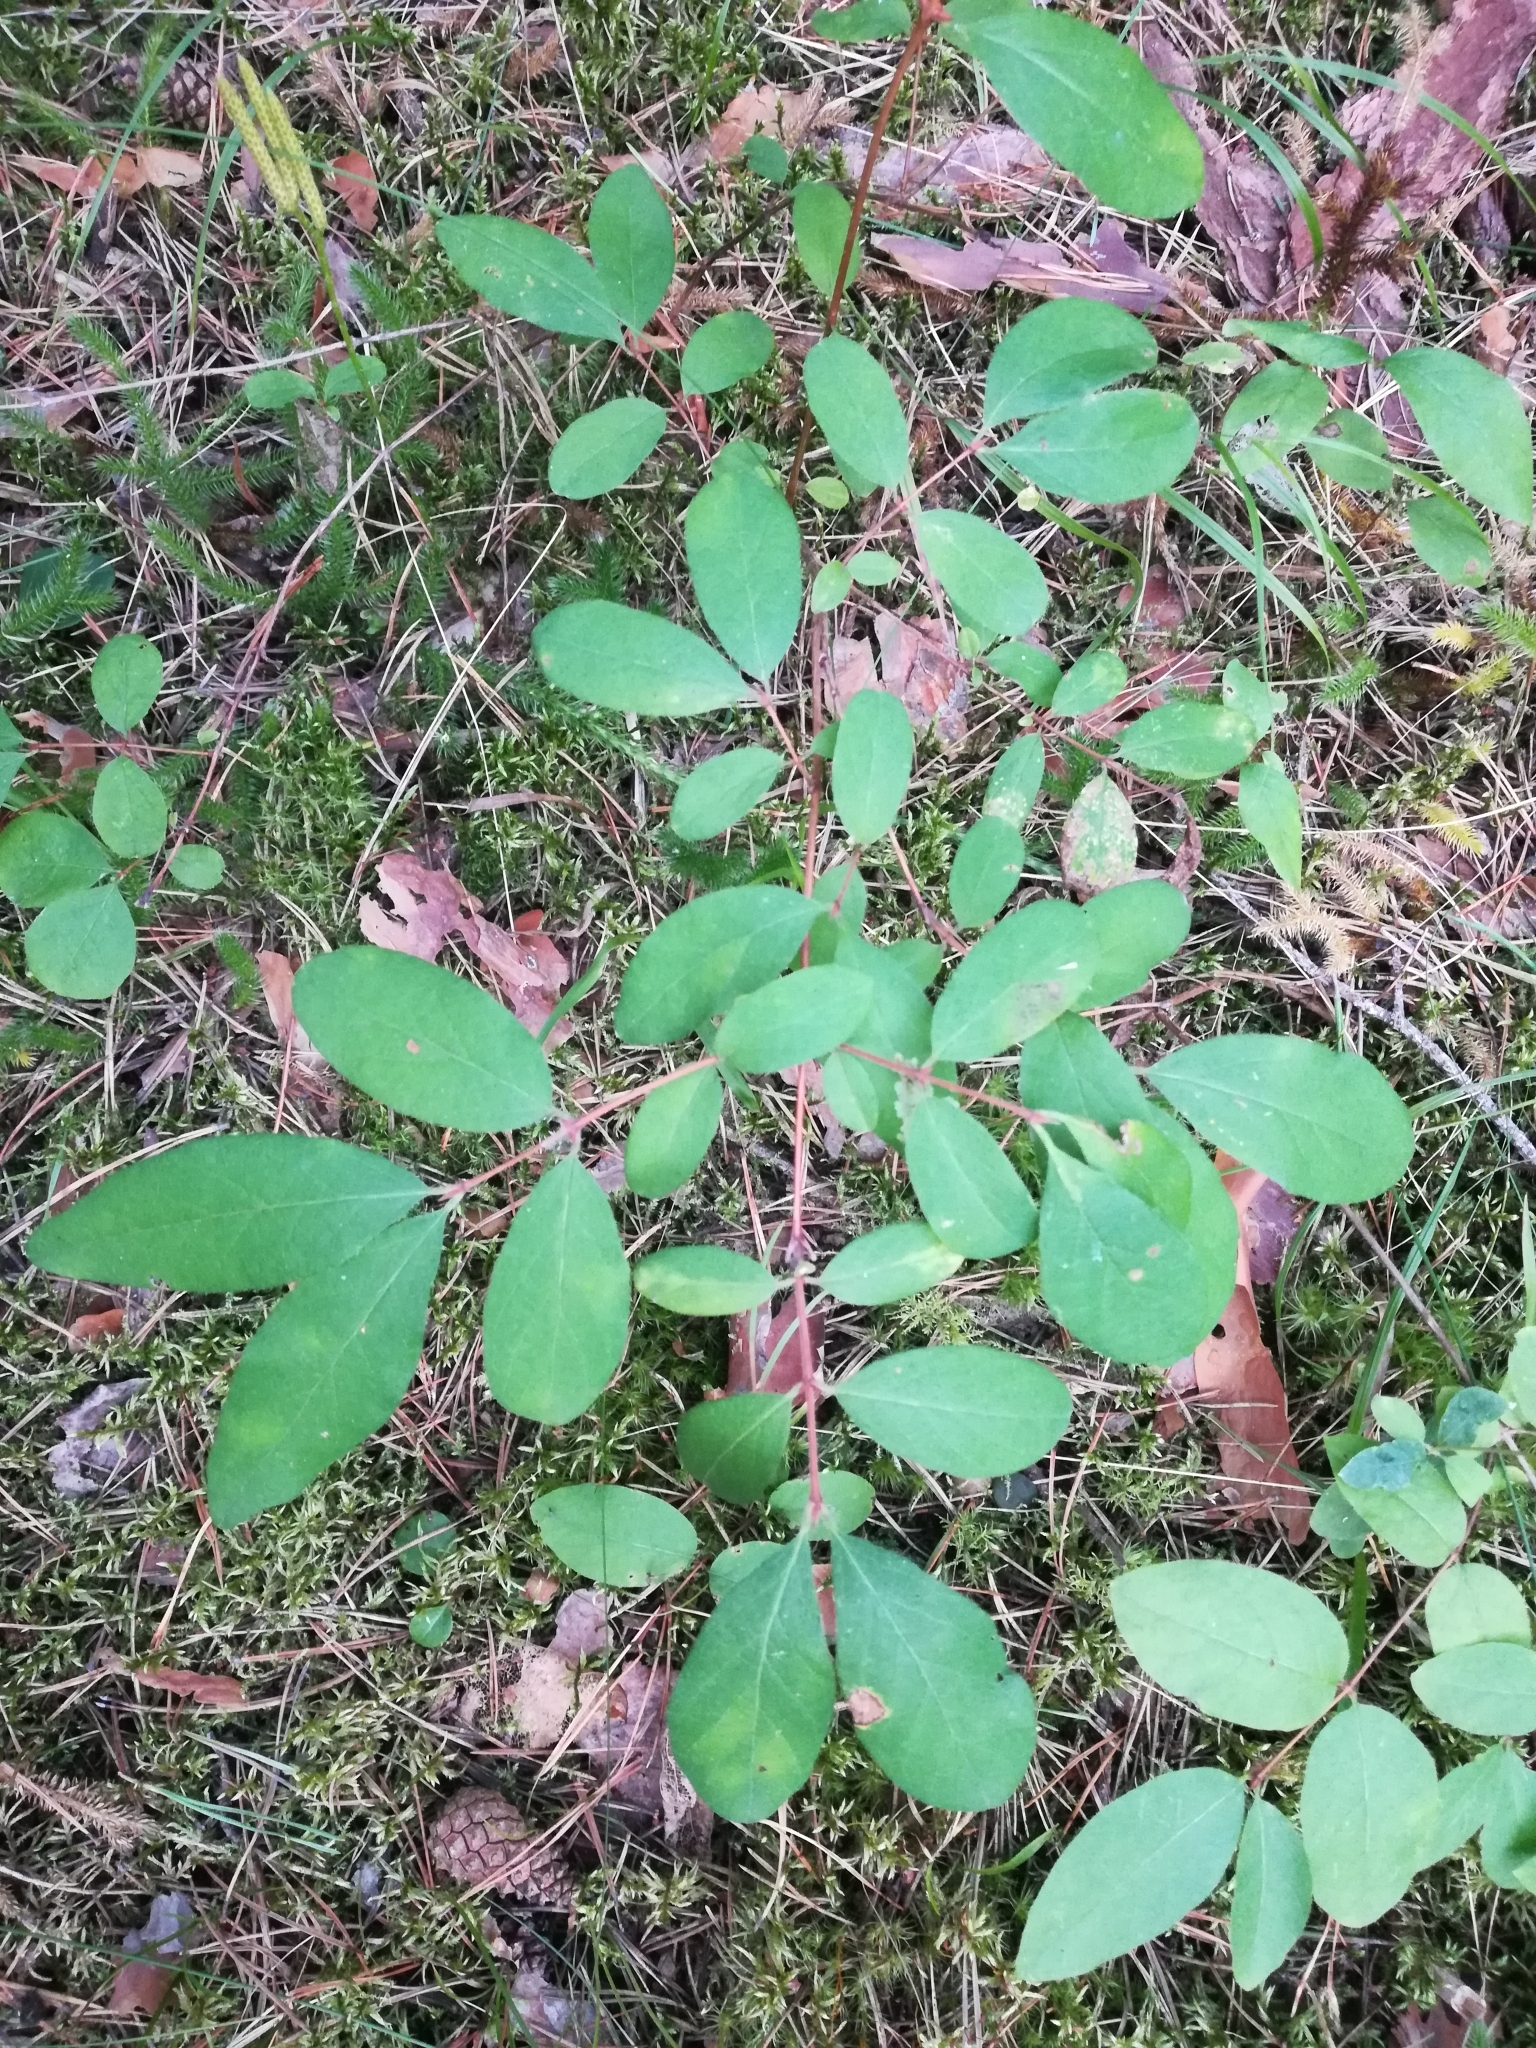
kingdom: Plantae
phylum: Tracheophyta
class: Magnoliopsida
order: Dipsacales
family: Caprifoliaceae
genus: Lonicera
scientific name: Lonicera caerulea
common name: Blue honeysuckle
